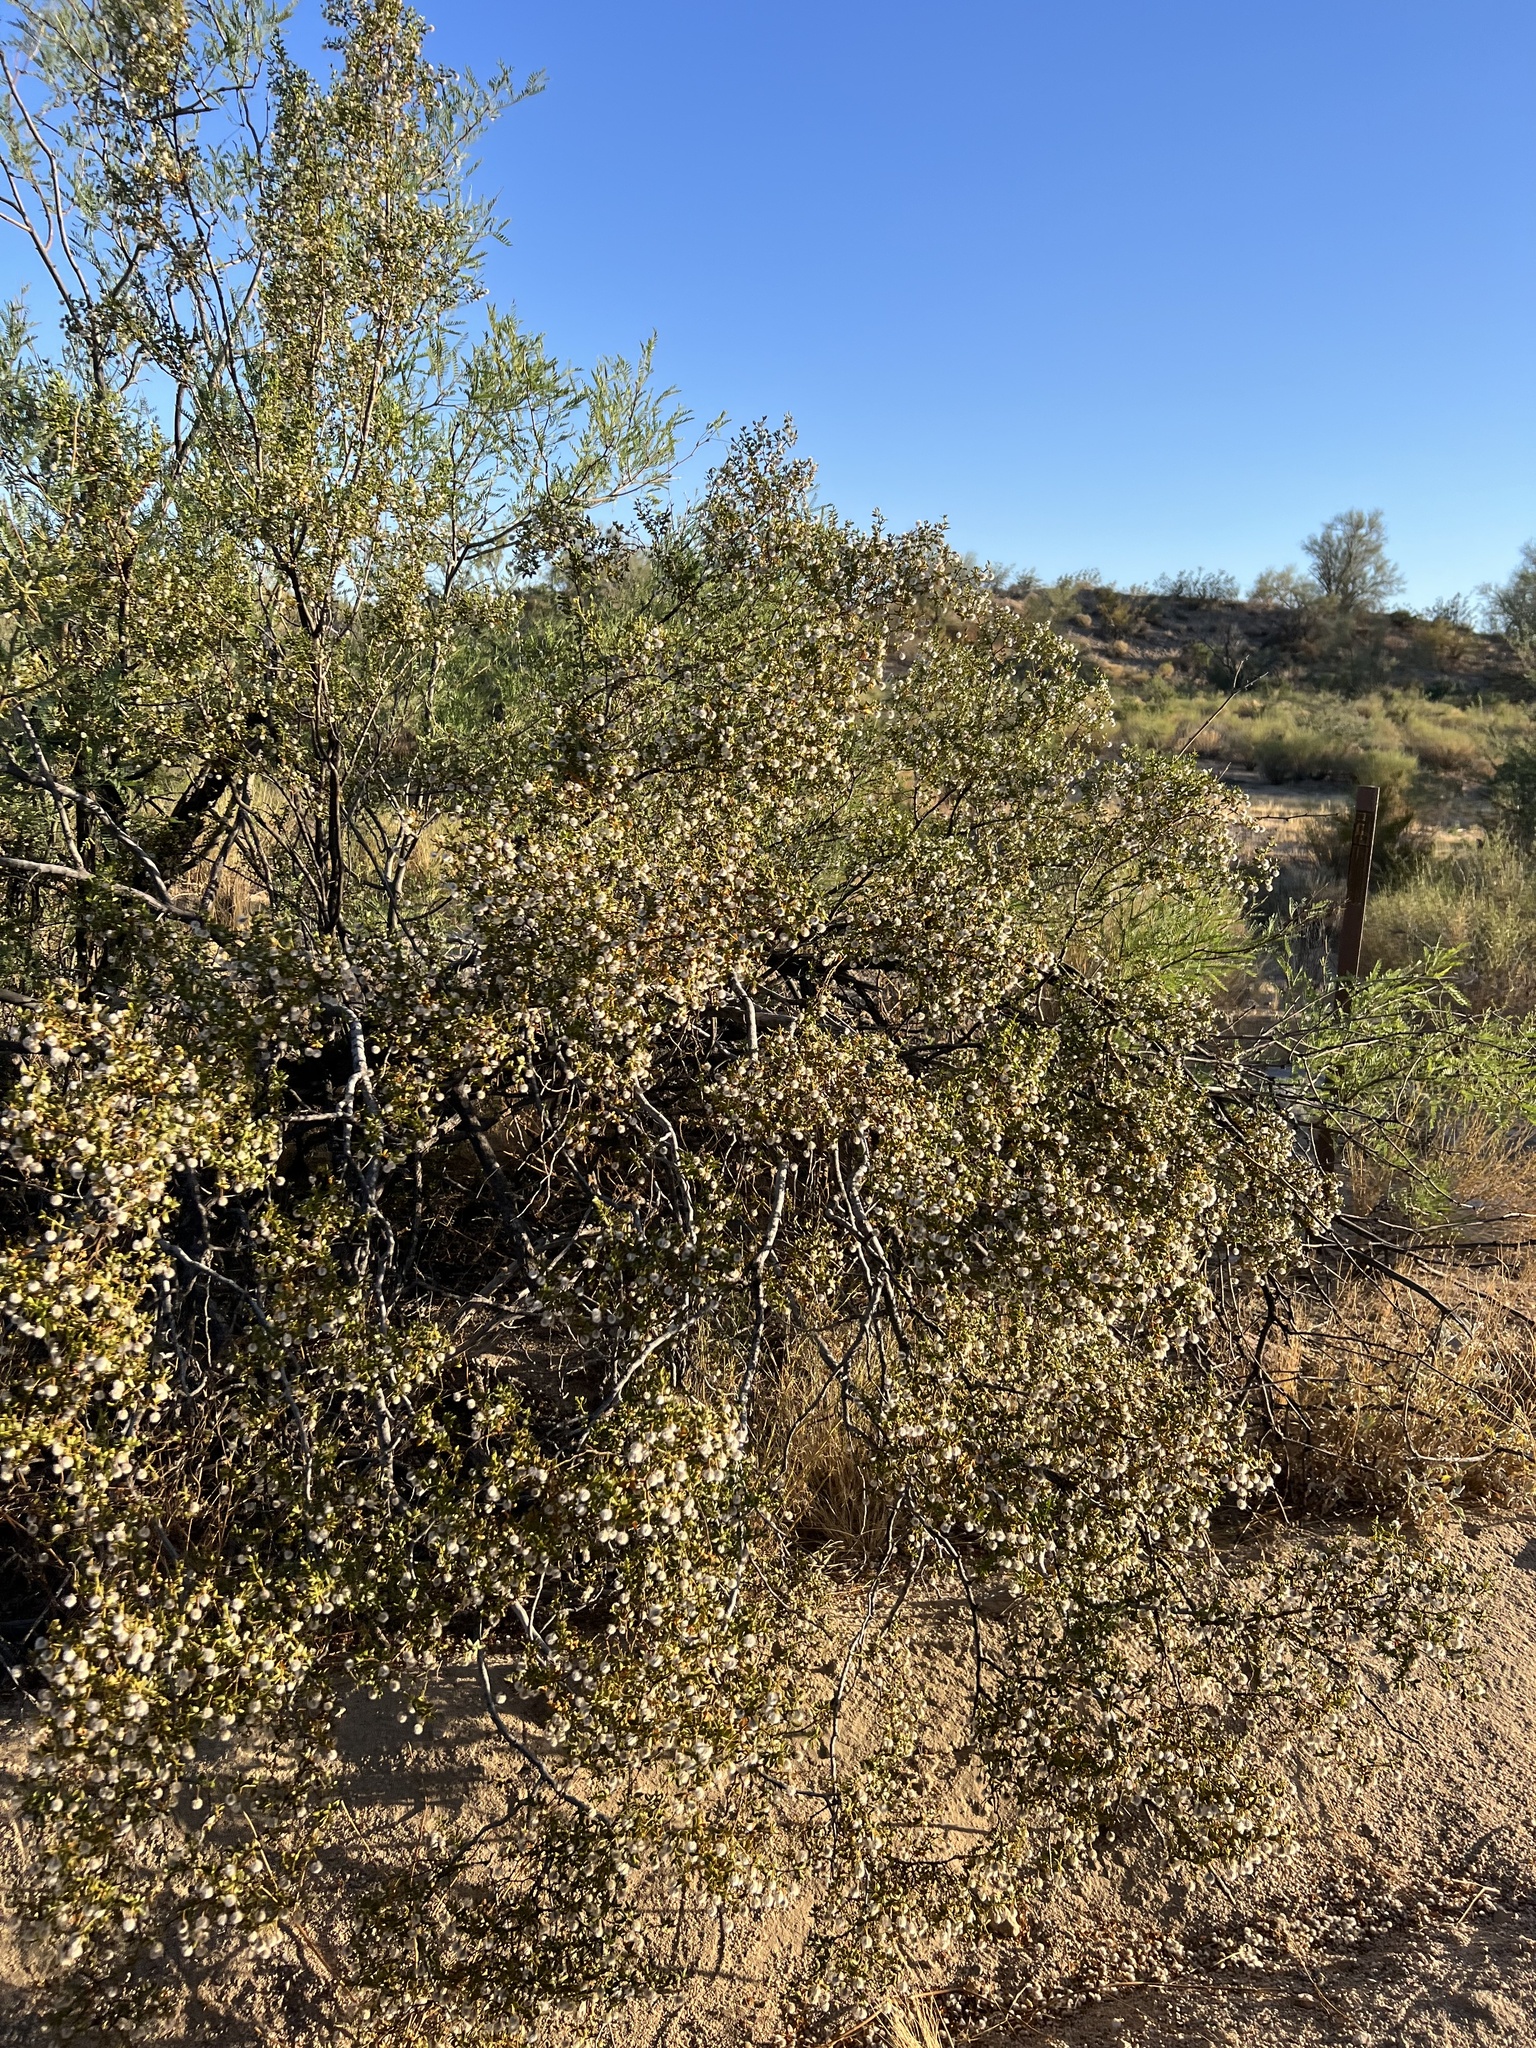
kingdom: Plantae
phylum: Tracheophyta
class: Magnoliopsida
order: Zygophyllales
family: Zygophyllaceae
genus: Larrea
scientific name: Larrea tridentata
